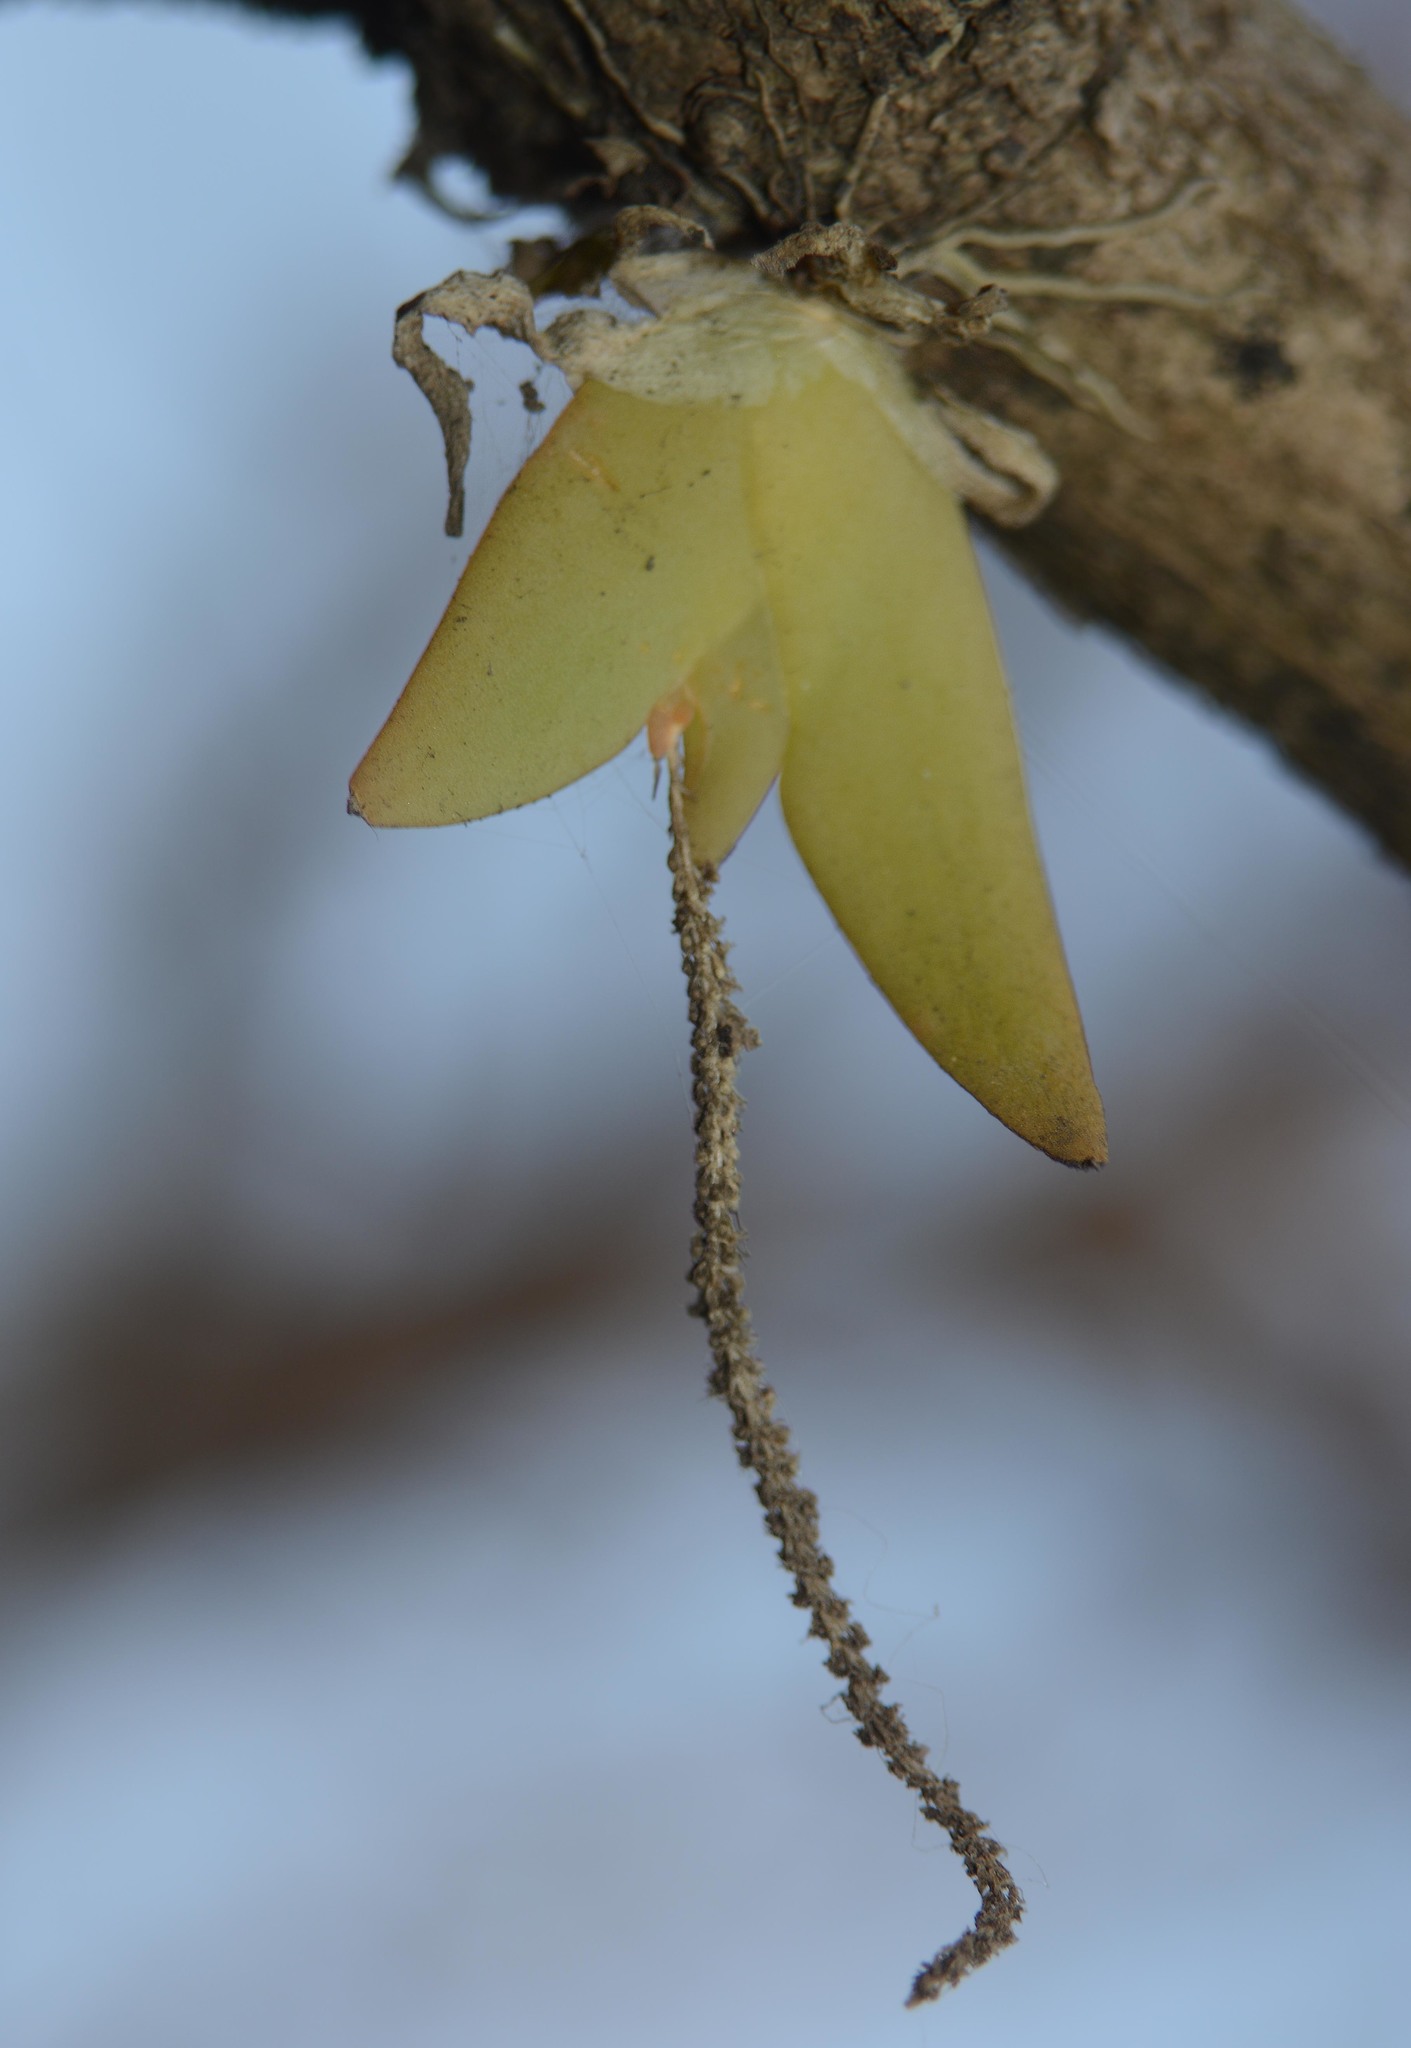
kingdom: Plantae
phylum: Tracheophyta
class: Liliopsida
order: Asparagales
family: Orchidaceae
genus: Oberonia
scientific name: Oberonia brachystachys
